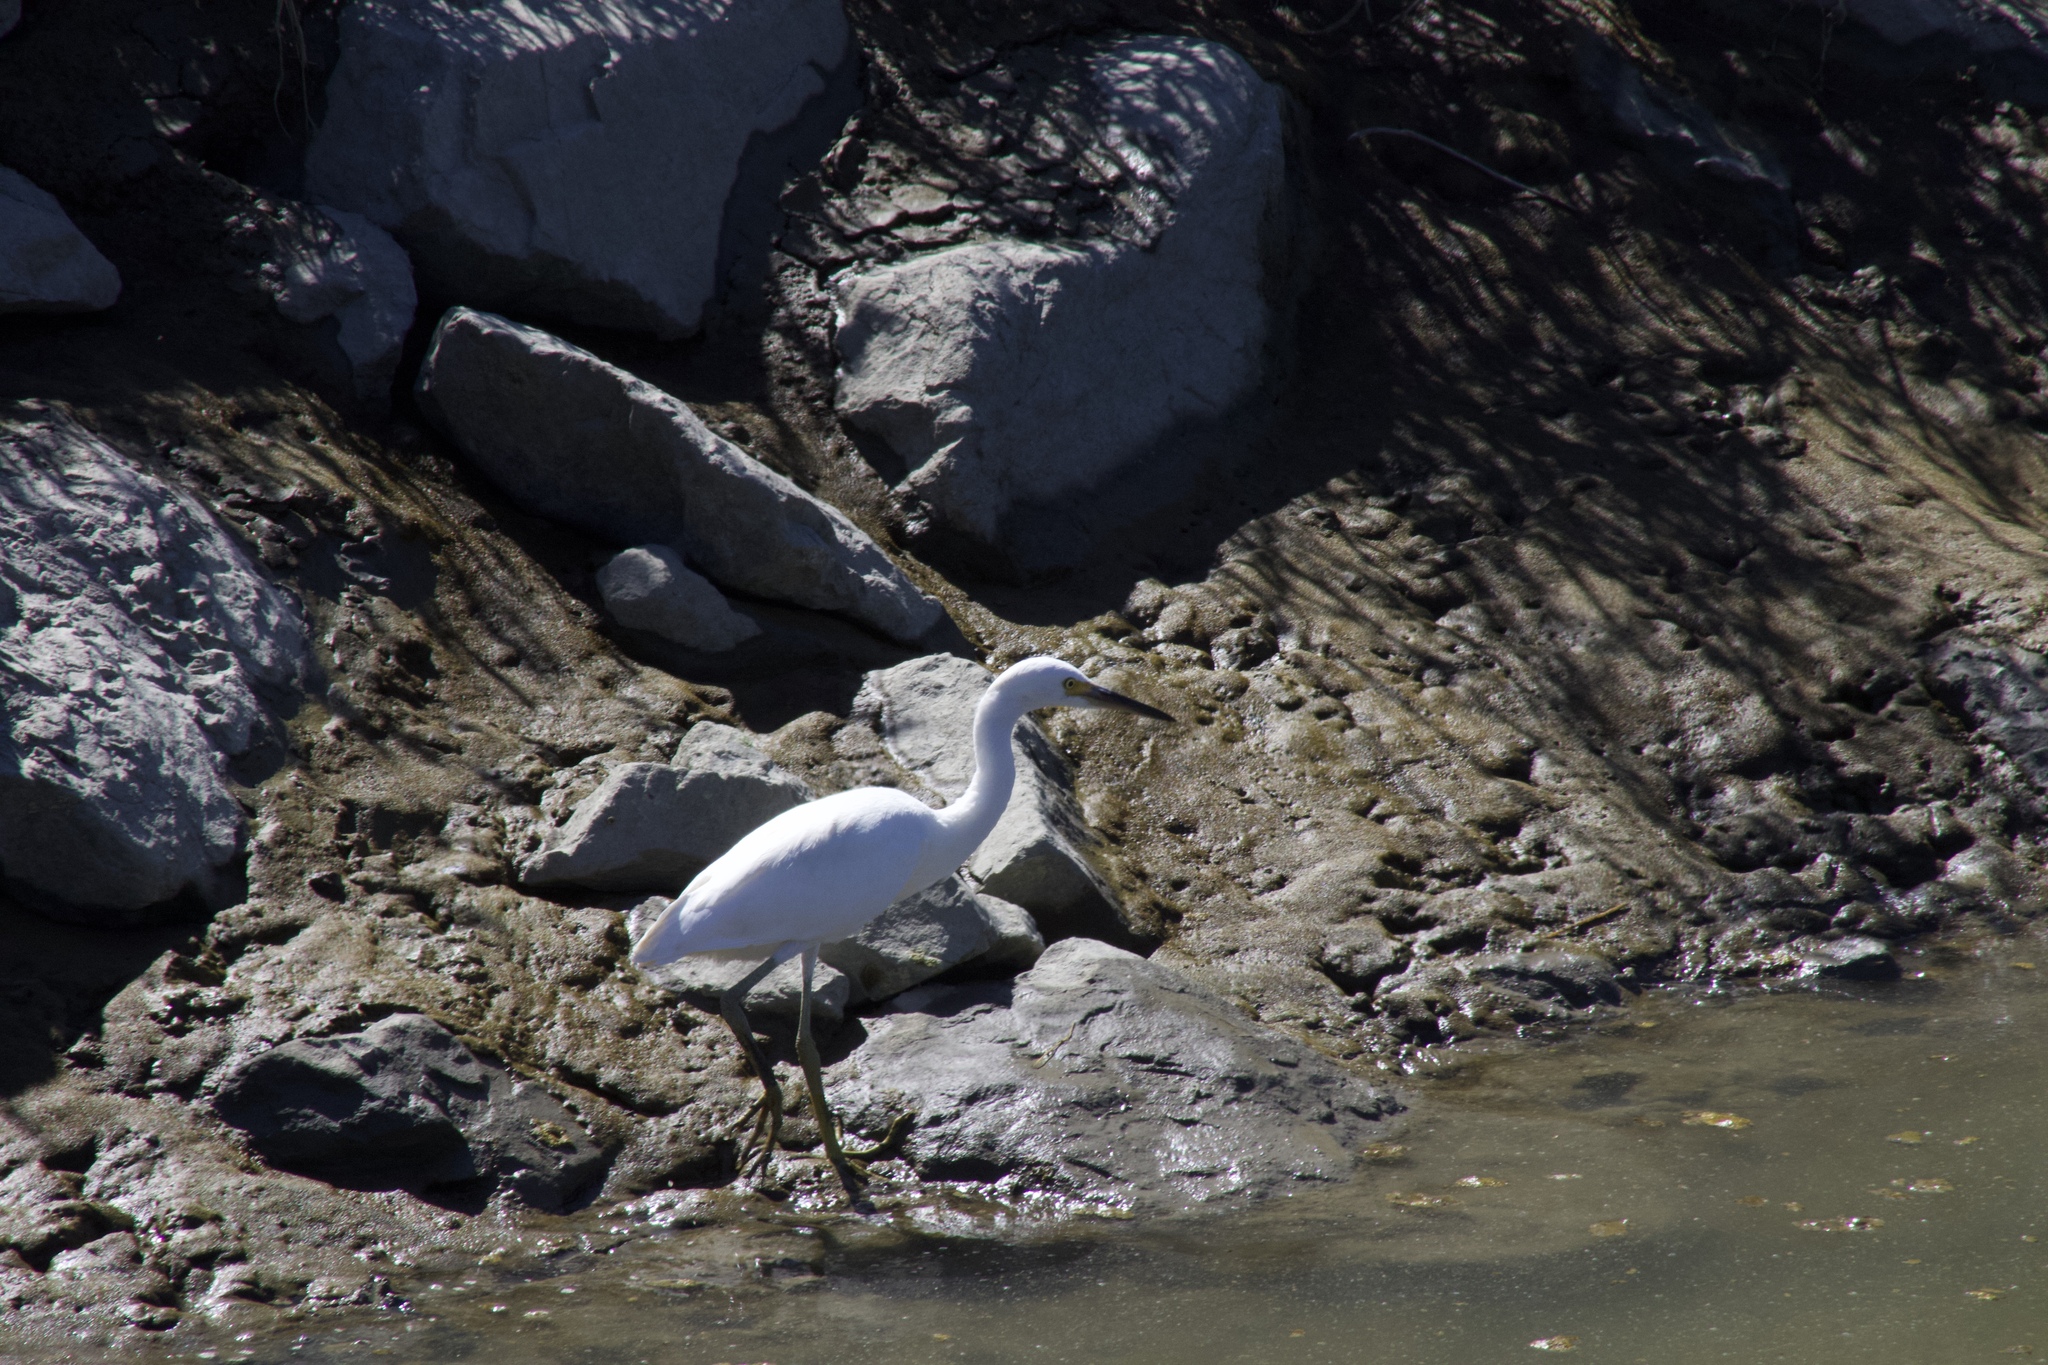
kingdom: Animalia
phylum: Chordata
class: Aves
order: Pelecaniformes
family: Ardeidae
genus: Egretta
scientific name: Egretta thula
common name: Snowy egret
